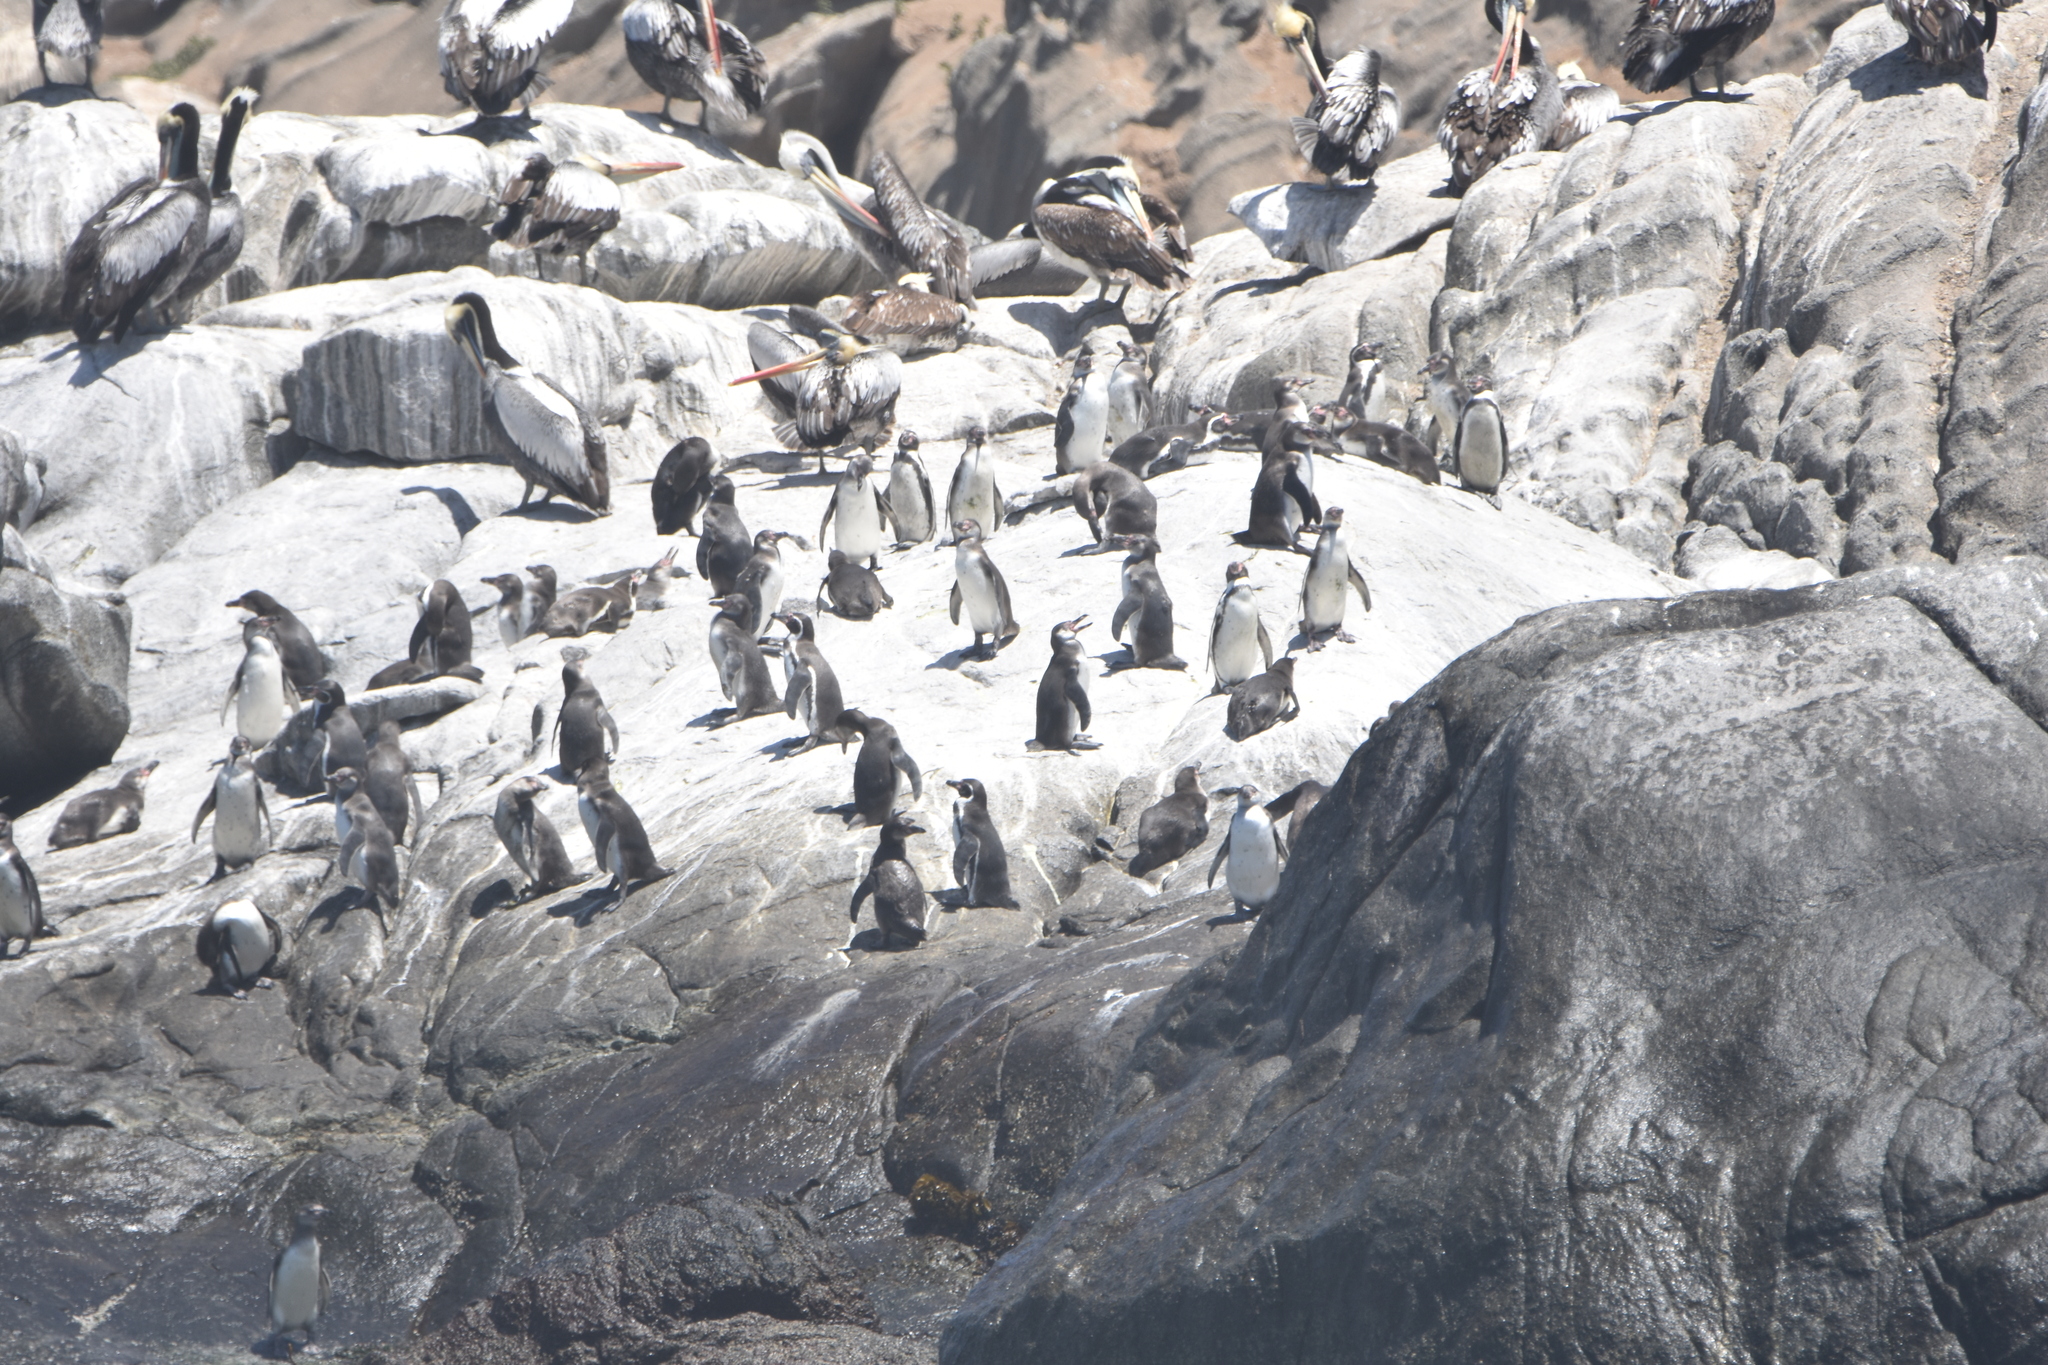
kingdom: Animalia
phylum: Chordata
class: Aves
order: Sphenisciformes
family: Spheniscidae
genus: Spheniscus
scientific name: Spheniscus humboldti
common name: Humboldt penguin
